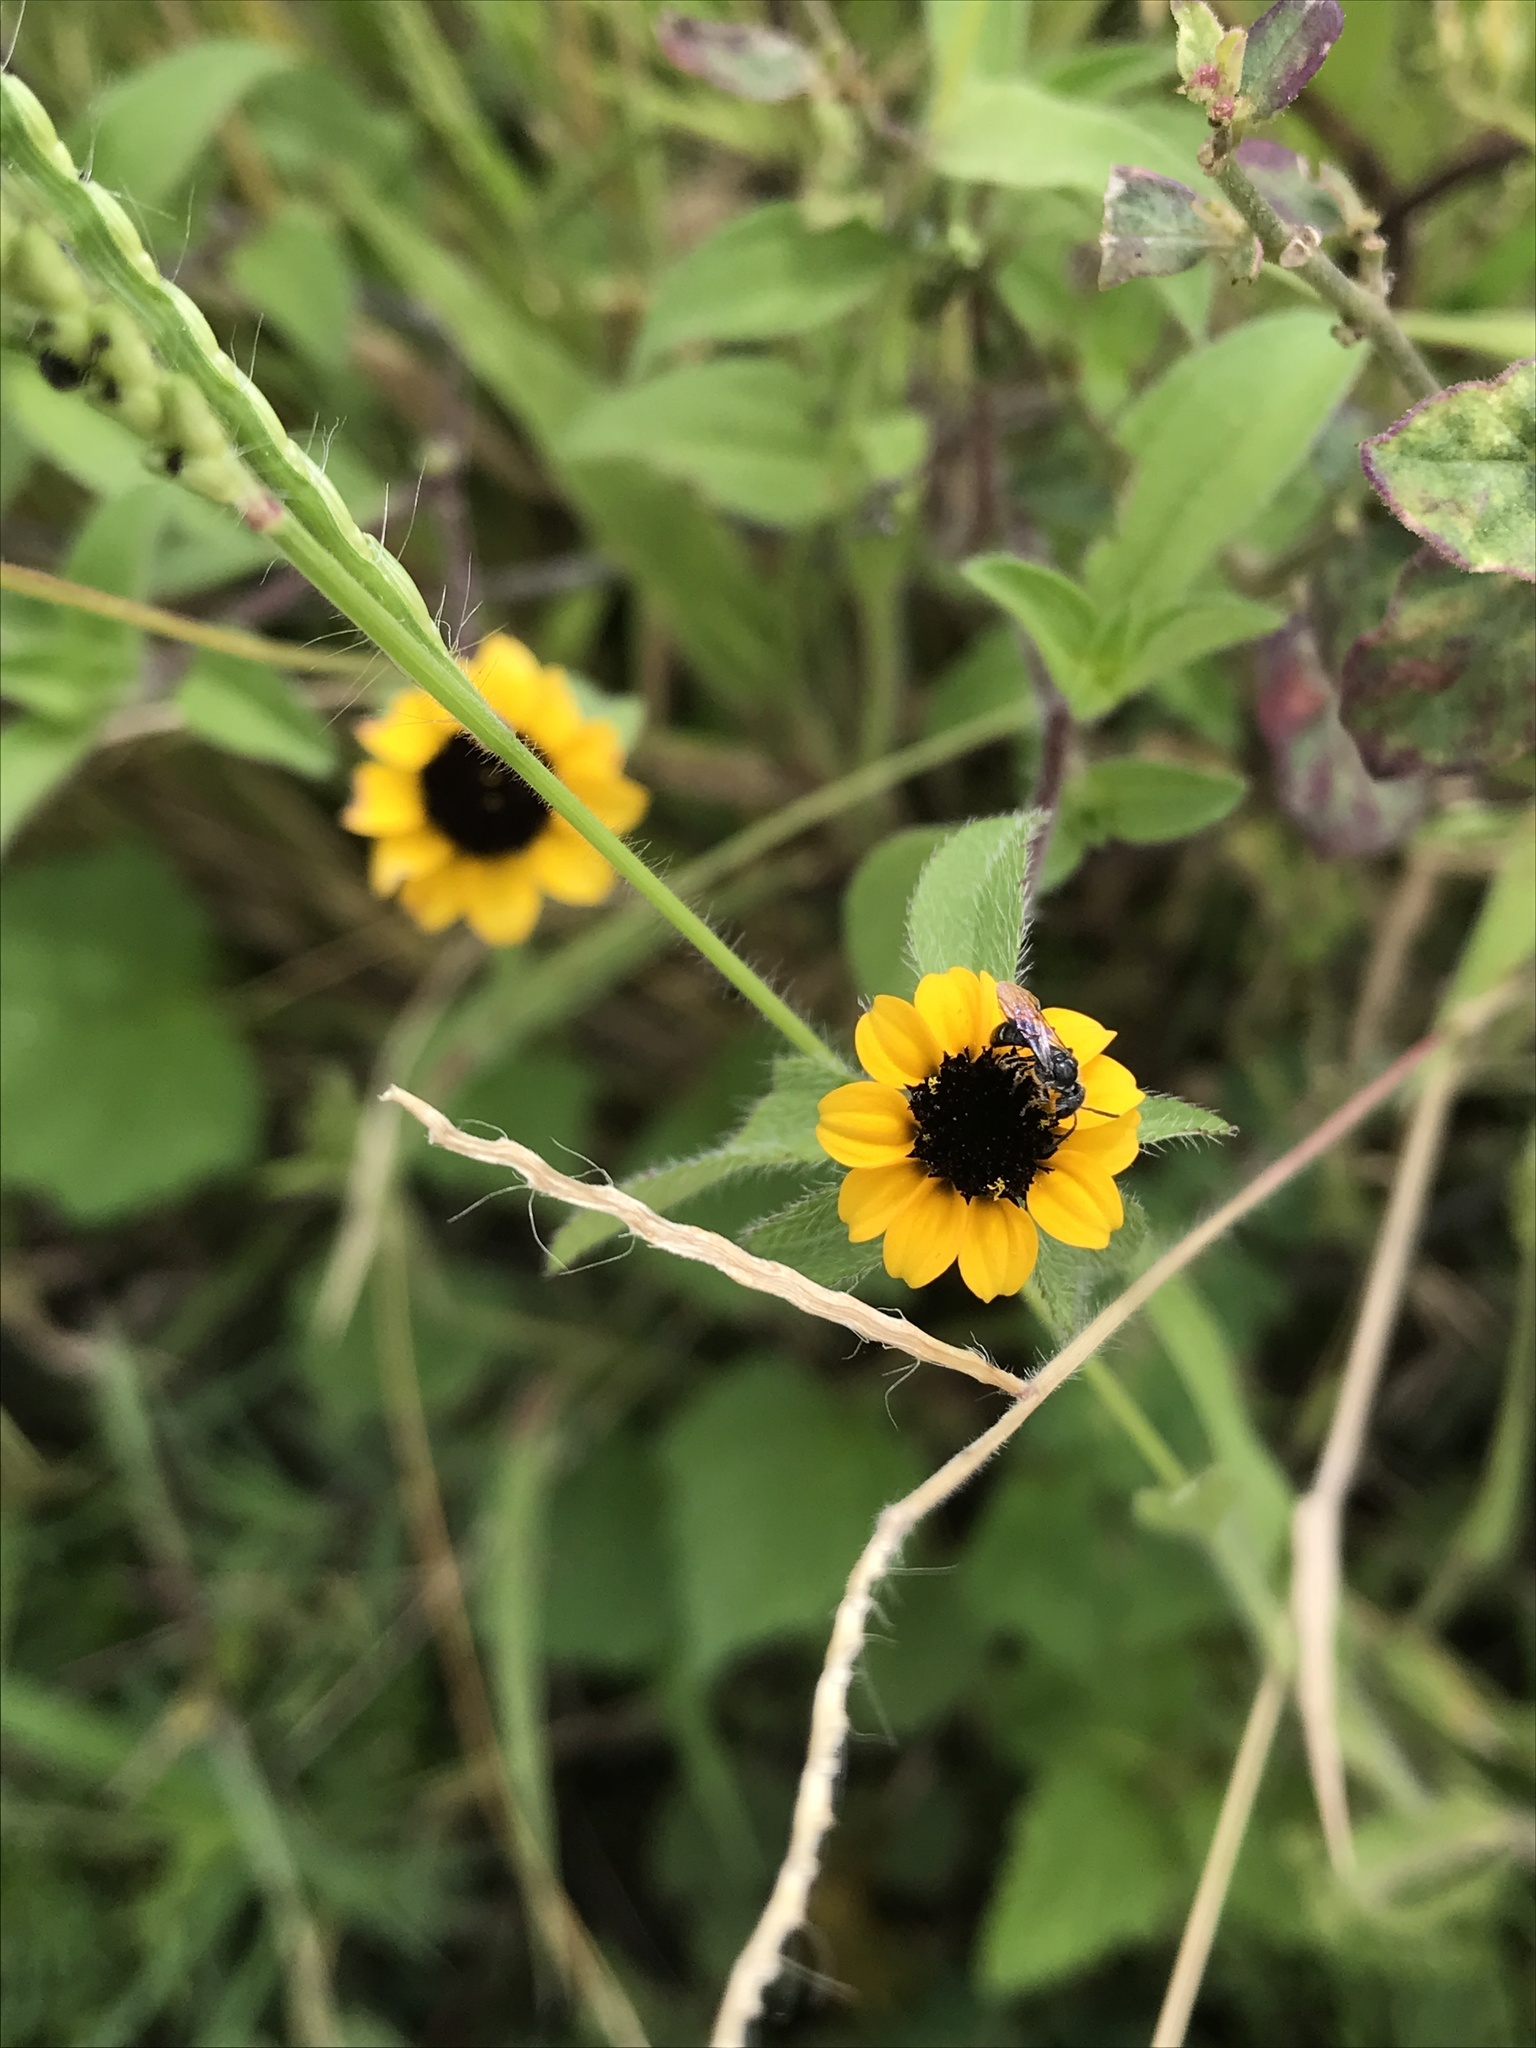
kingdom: Plantae
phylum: Tracheophyta
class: Magnoliopsida
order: Asterales
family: Asteraceae
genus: Sanvitalia
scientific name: Sanvitalia procumbens
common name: Mexican creeping zinnia
